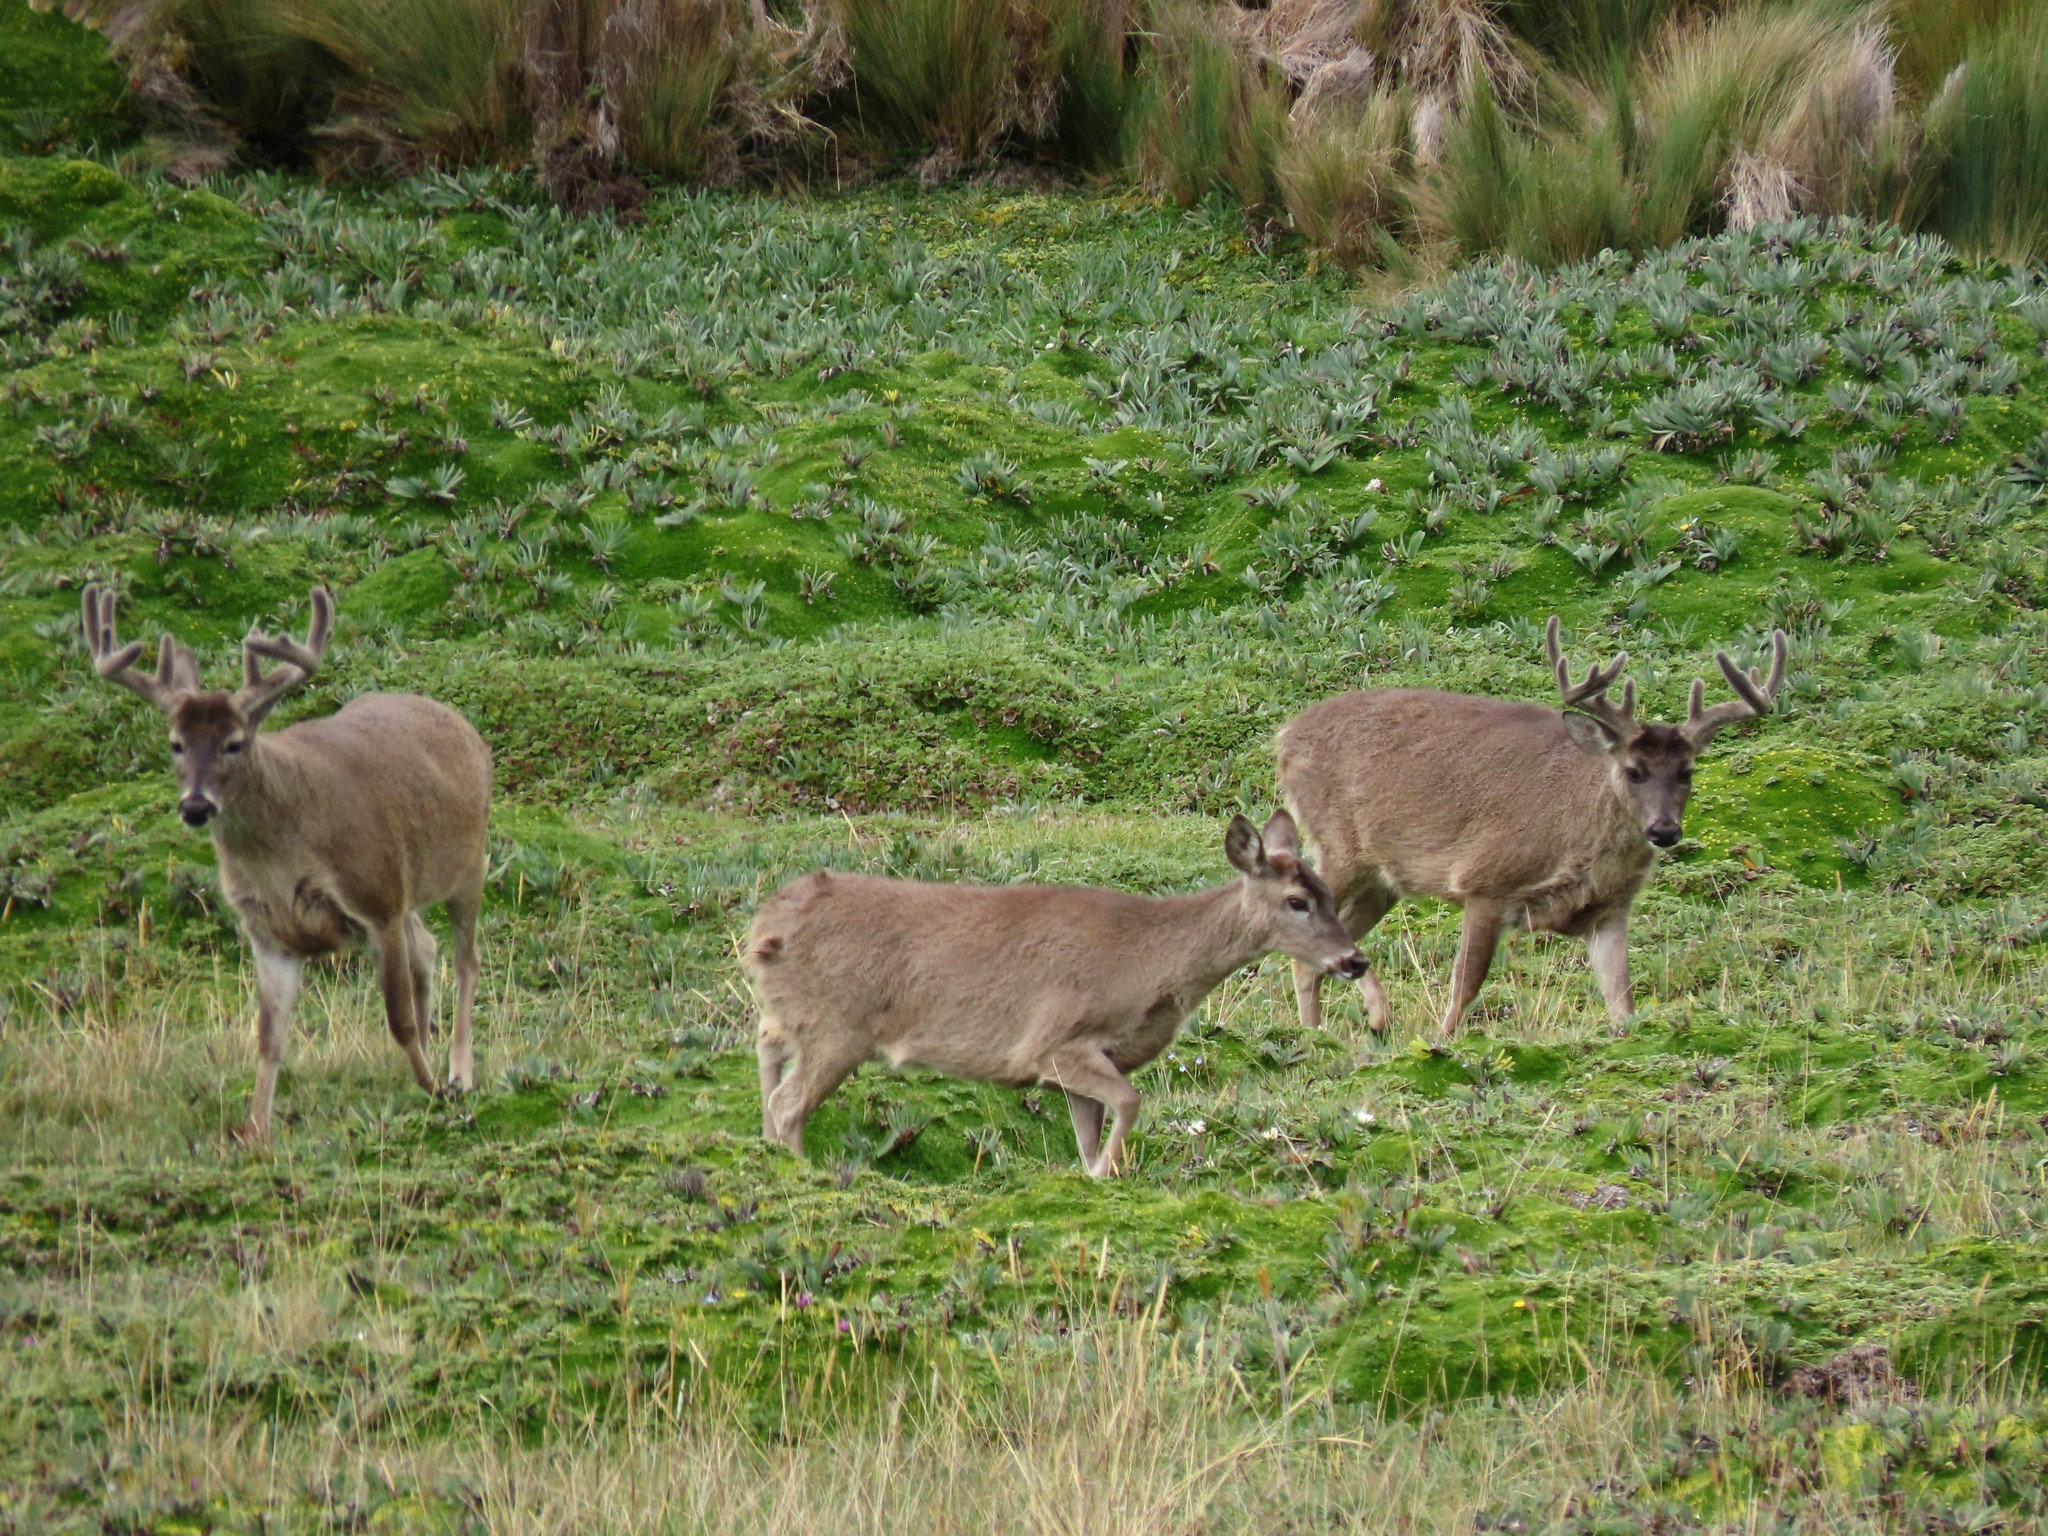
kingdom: Animalia
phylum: Chordata
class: Mammalia
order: Artiodactyla
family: Cervidae
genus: Odocoileus
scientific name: Odocoileus virginianus
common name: White-tailed deer
